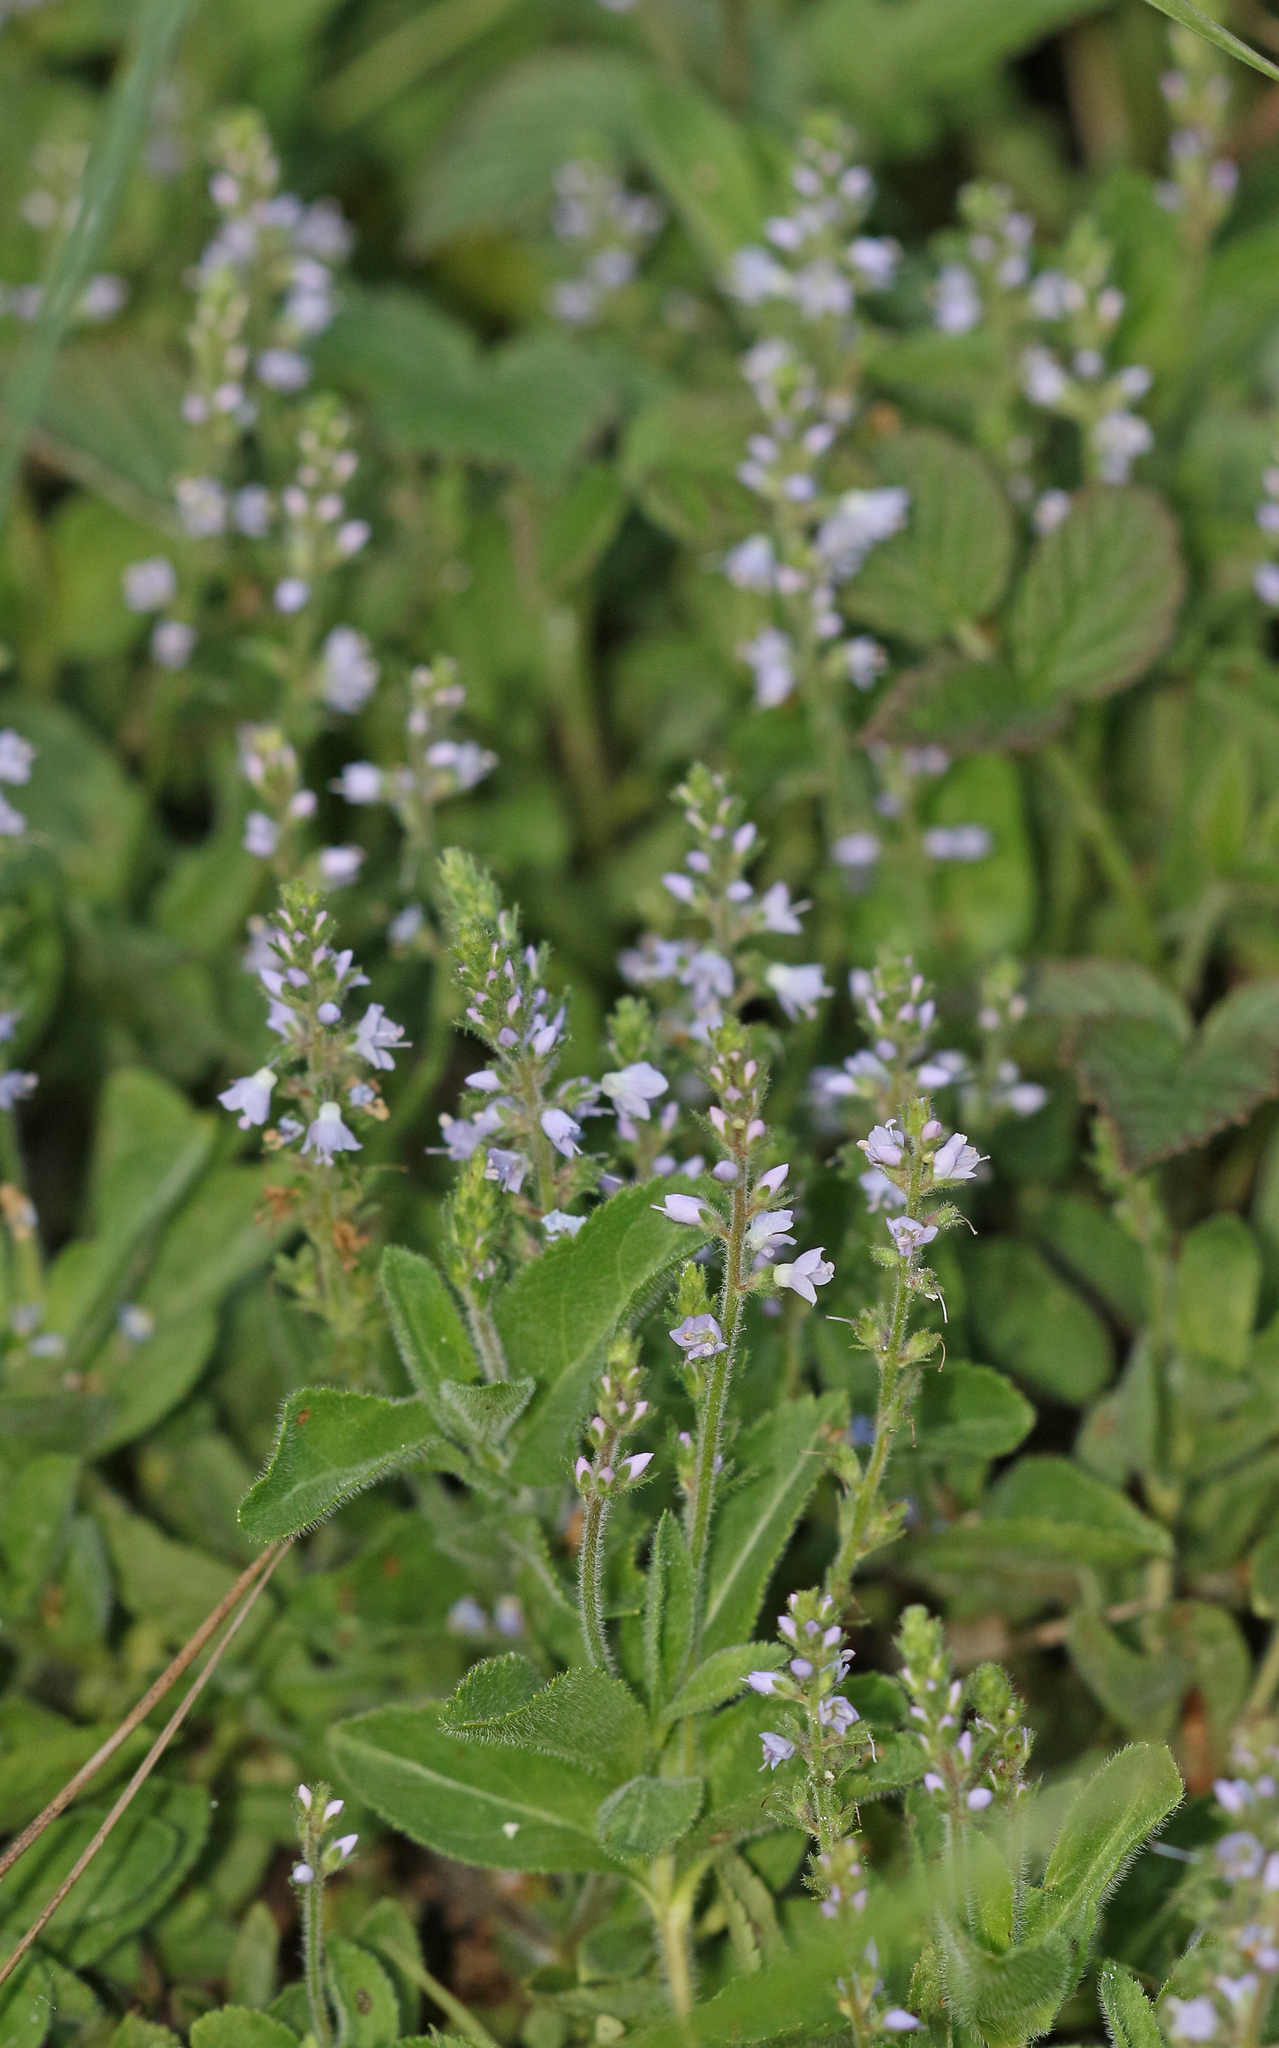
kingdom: Plantae
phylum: Tracheophyta
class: Magnoliopsida
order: Lamiales
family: Plantaginaceae
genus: Veronica
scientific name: Veronica officinalis
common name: Common speedwell
